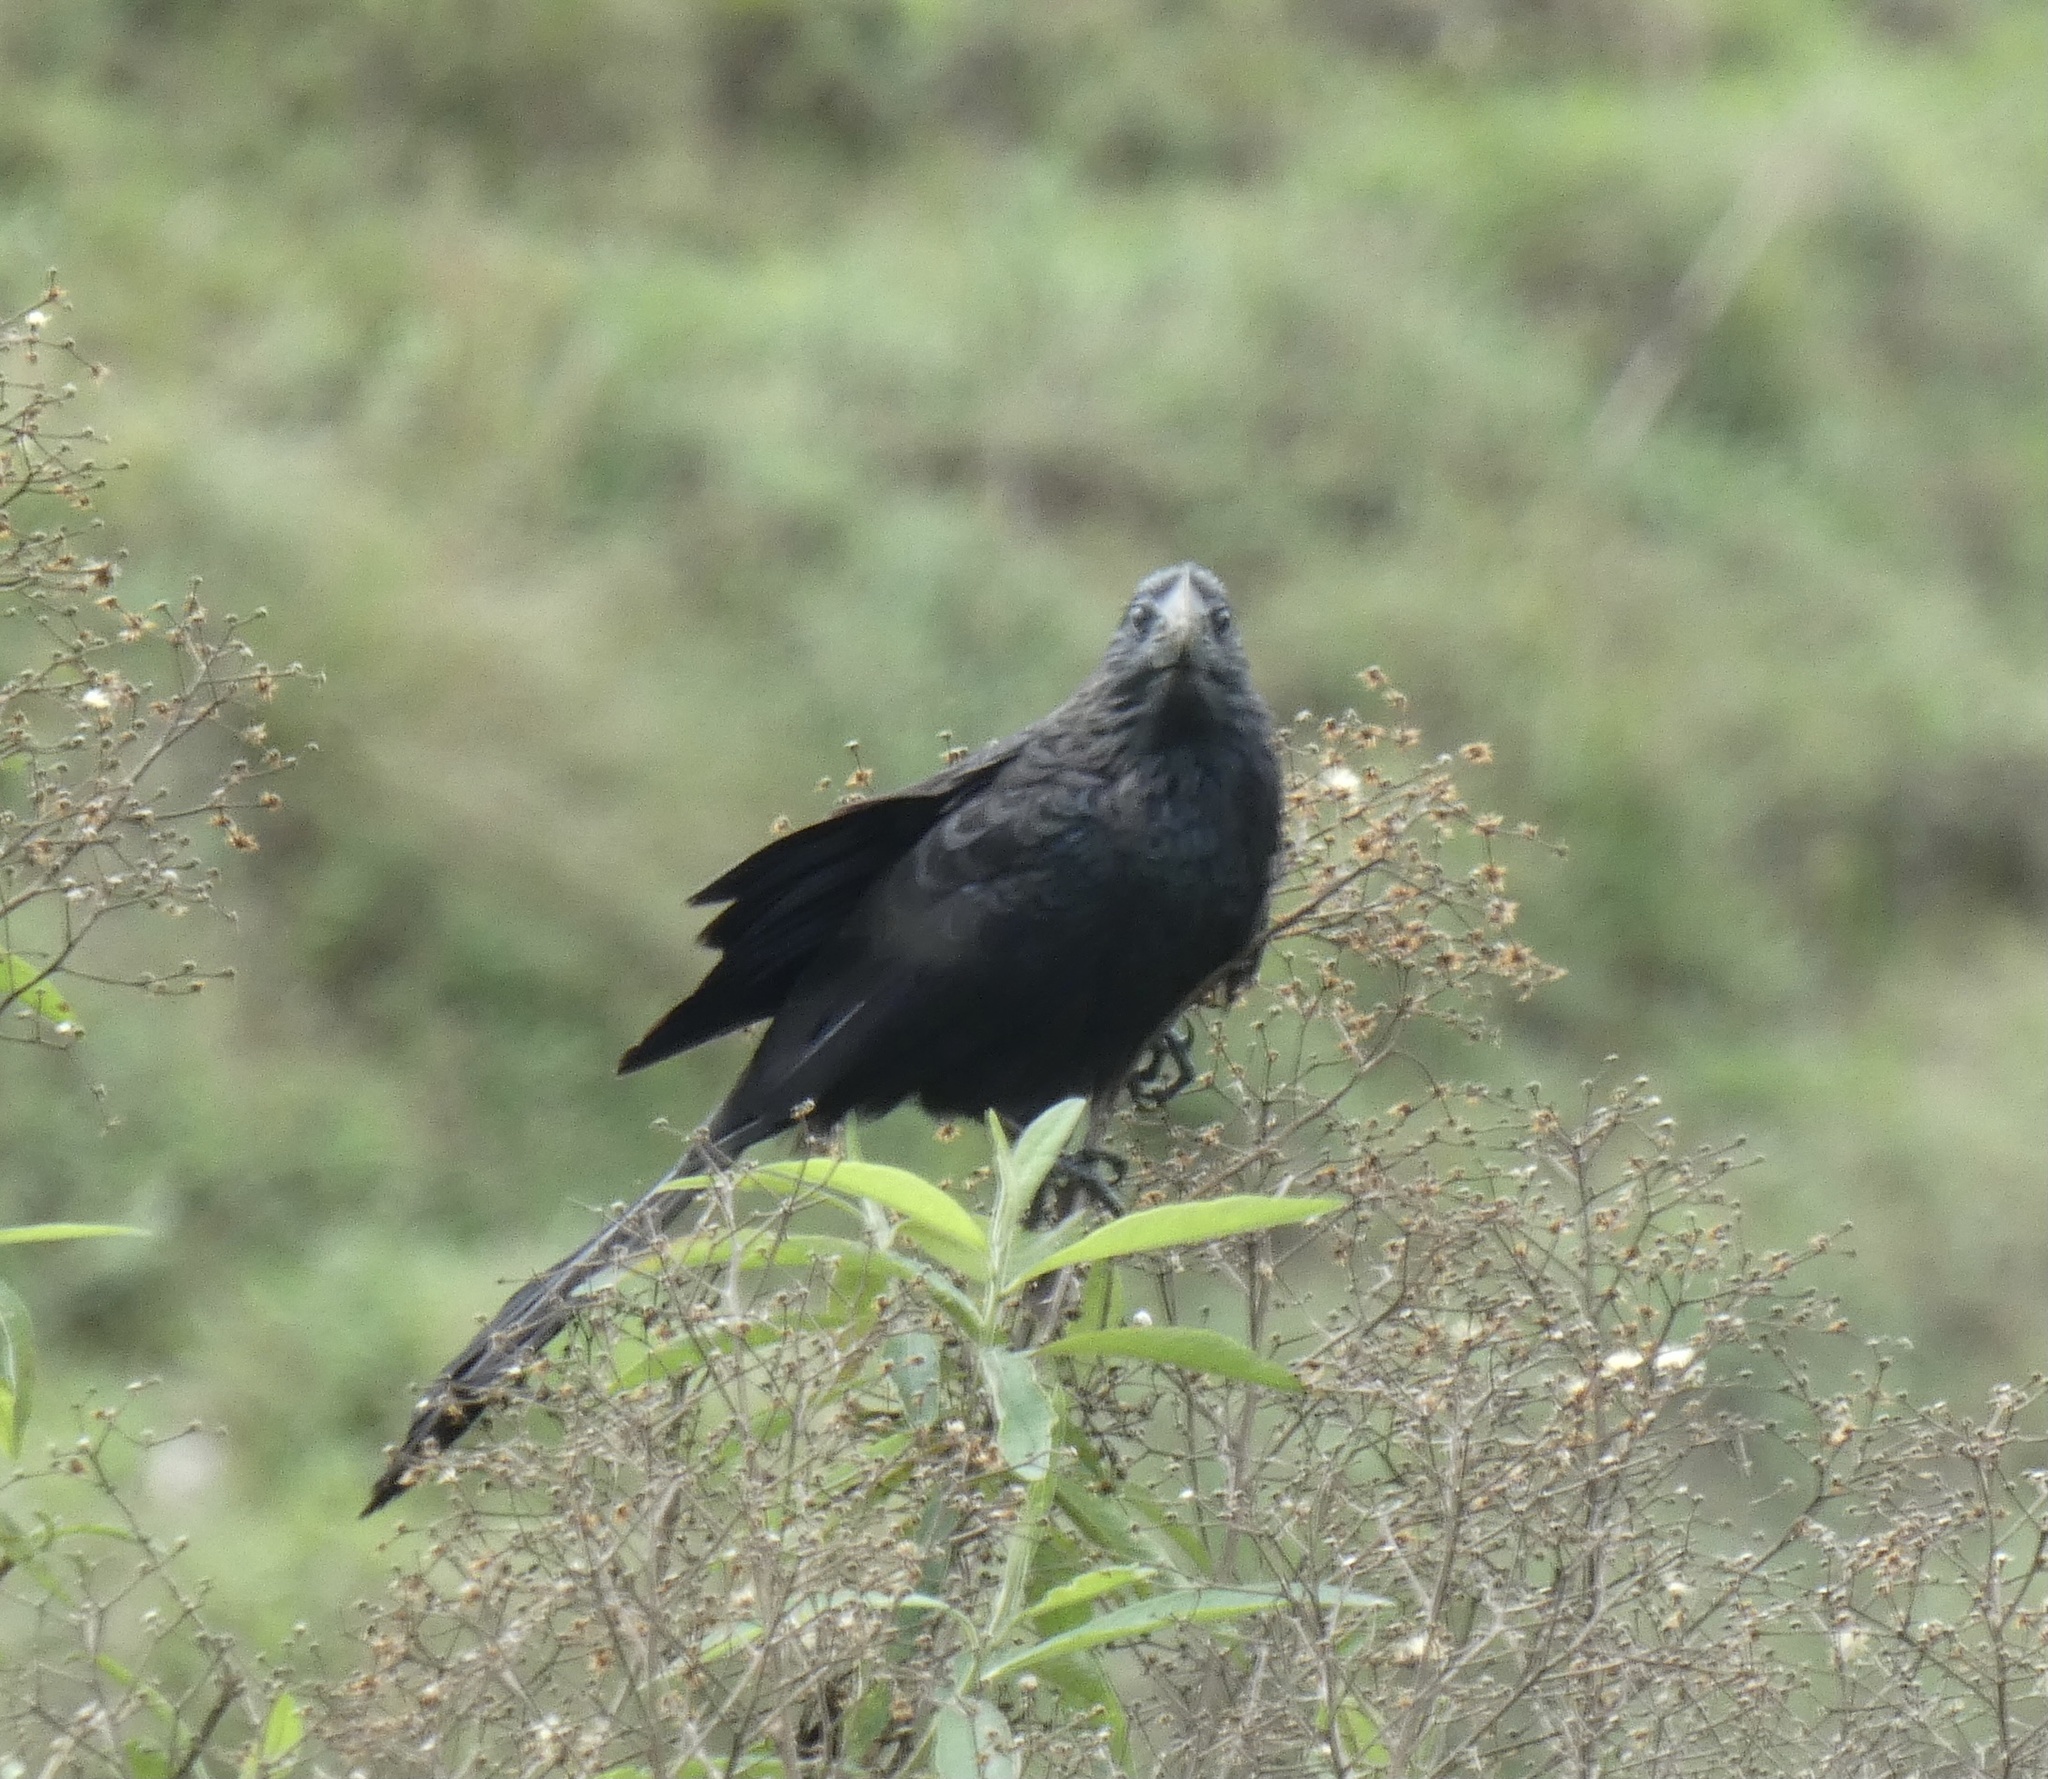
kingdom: Animalia
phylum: Chordata
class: Aves
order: Cuculiformes
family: Cuculidae
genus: Crotophaga
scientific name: Crotophaga ani
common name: Smooth-billed ani
